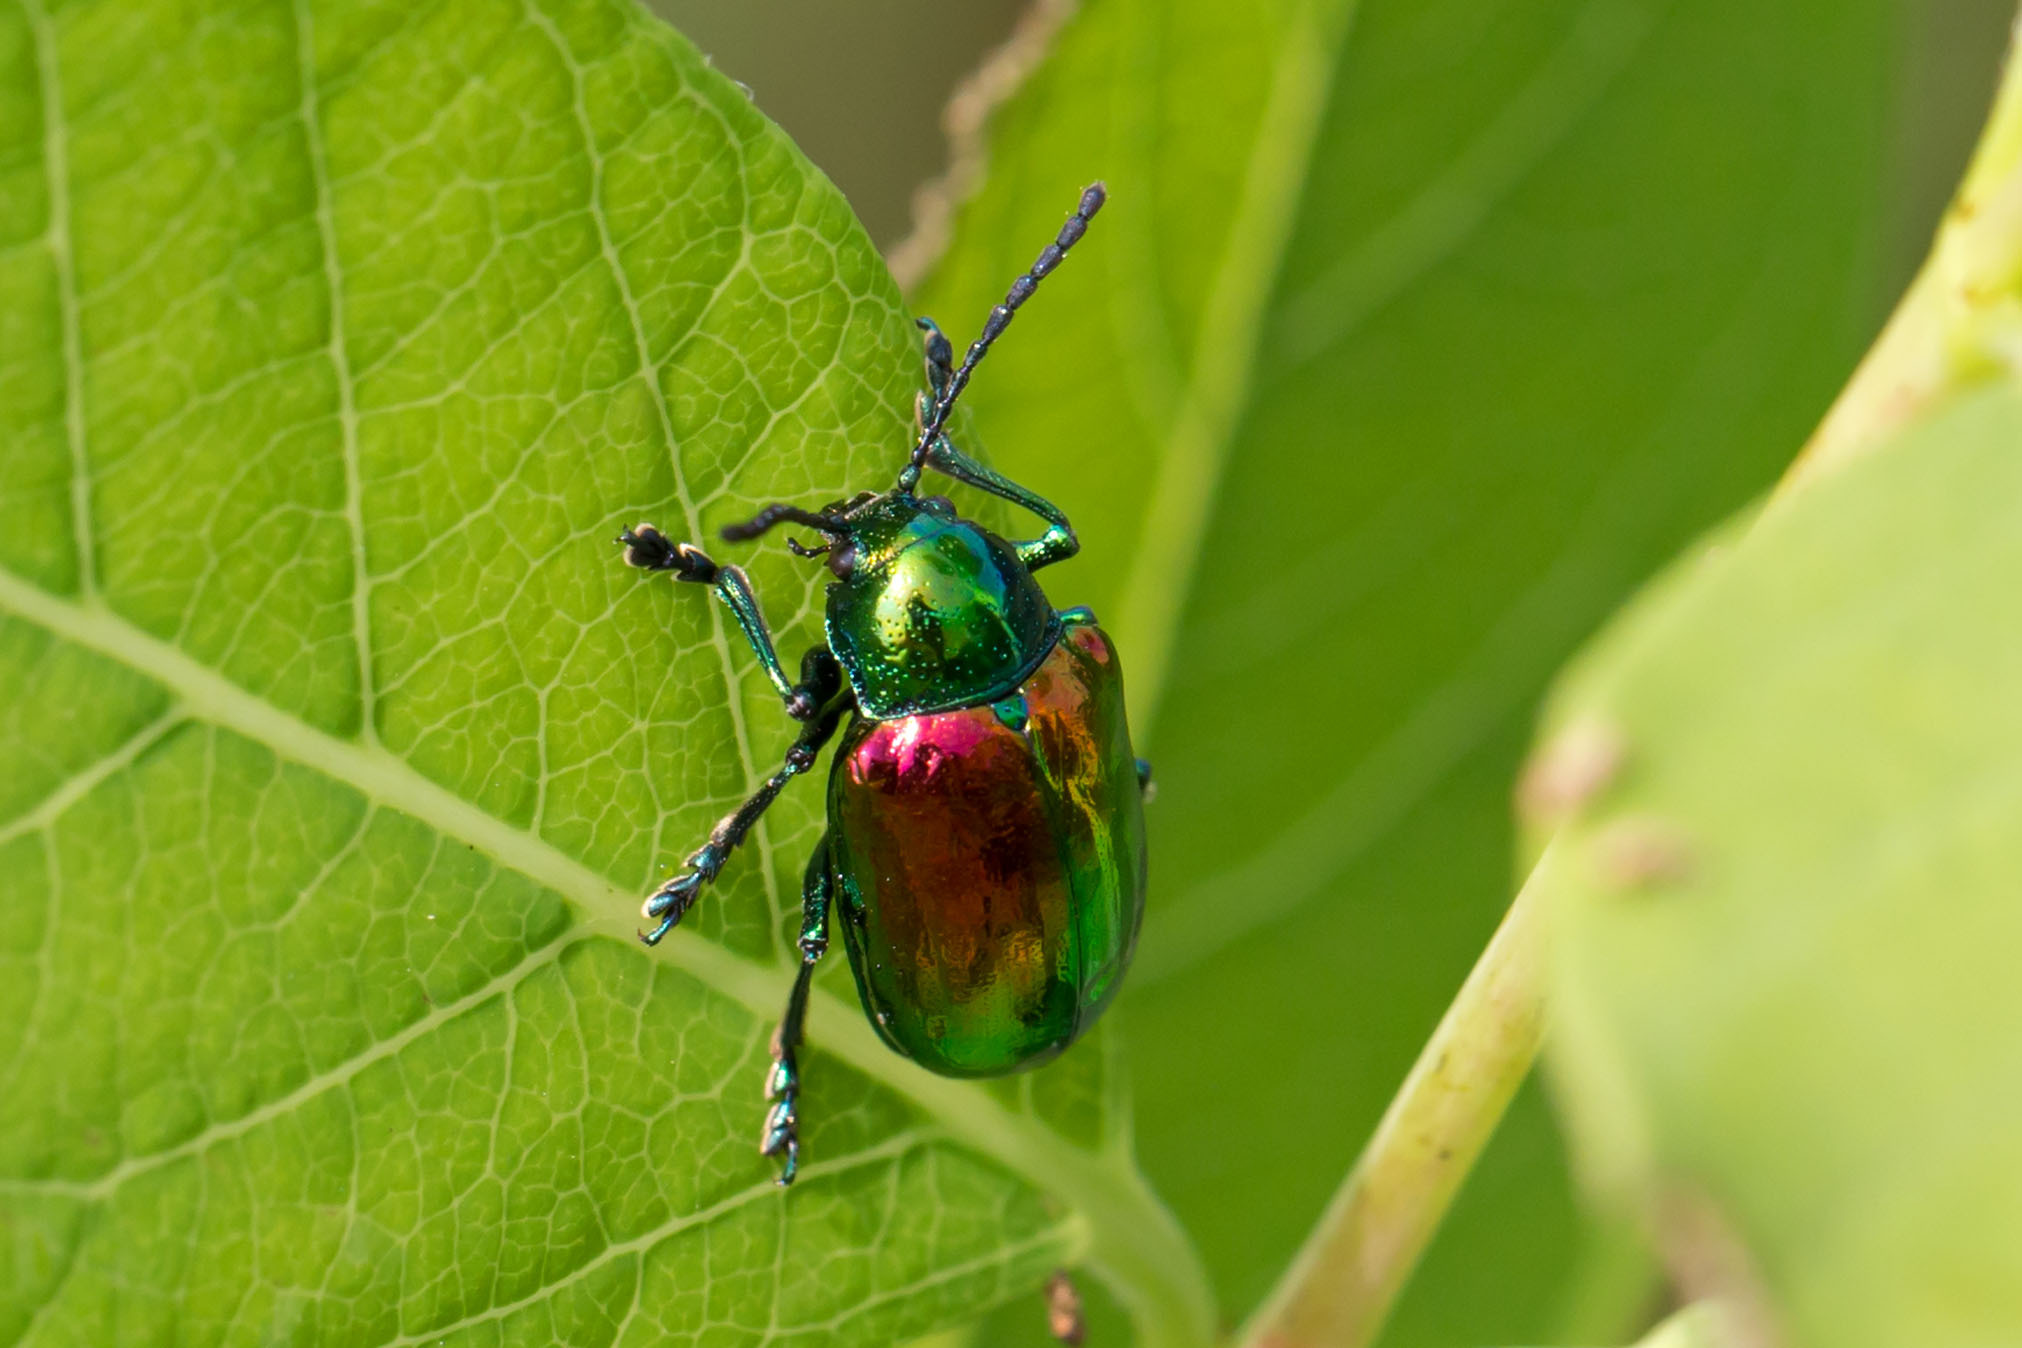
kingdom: Animalia
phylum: Arthropoda
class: Insecta
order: Coleoptera
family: Chrysomelidae
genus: Chrysochus
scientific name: Chrysochus auratus
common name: Dogbane leaf beetle
